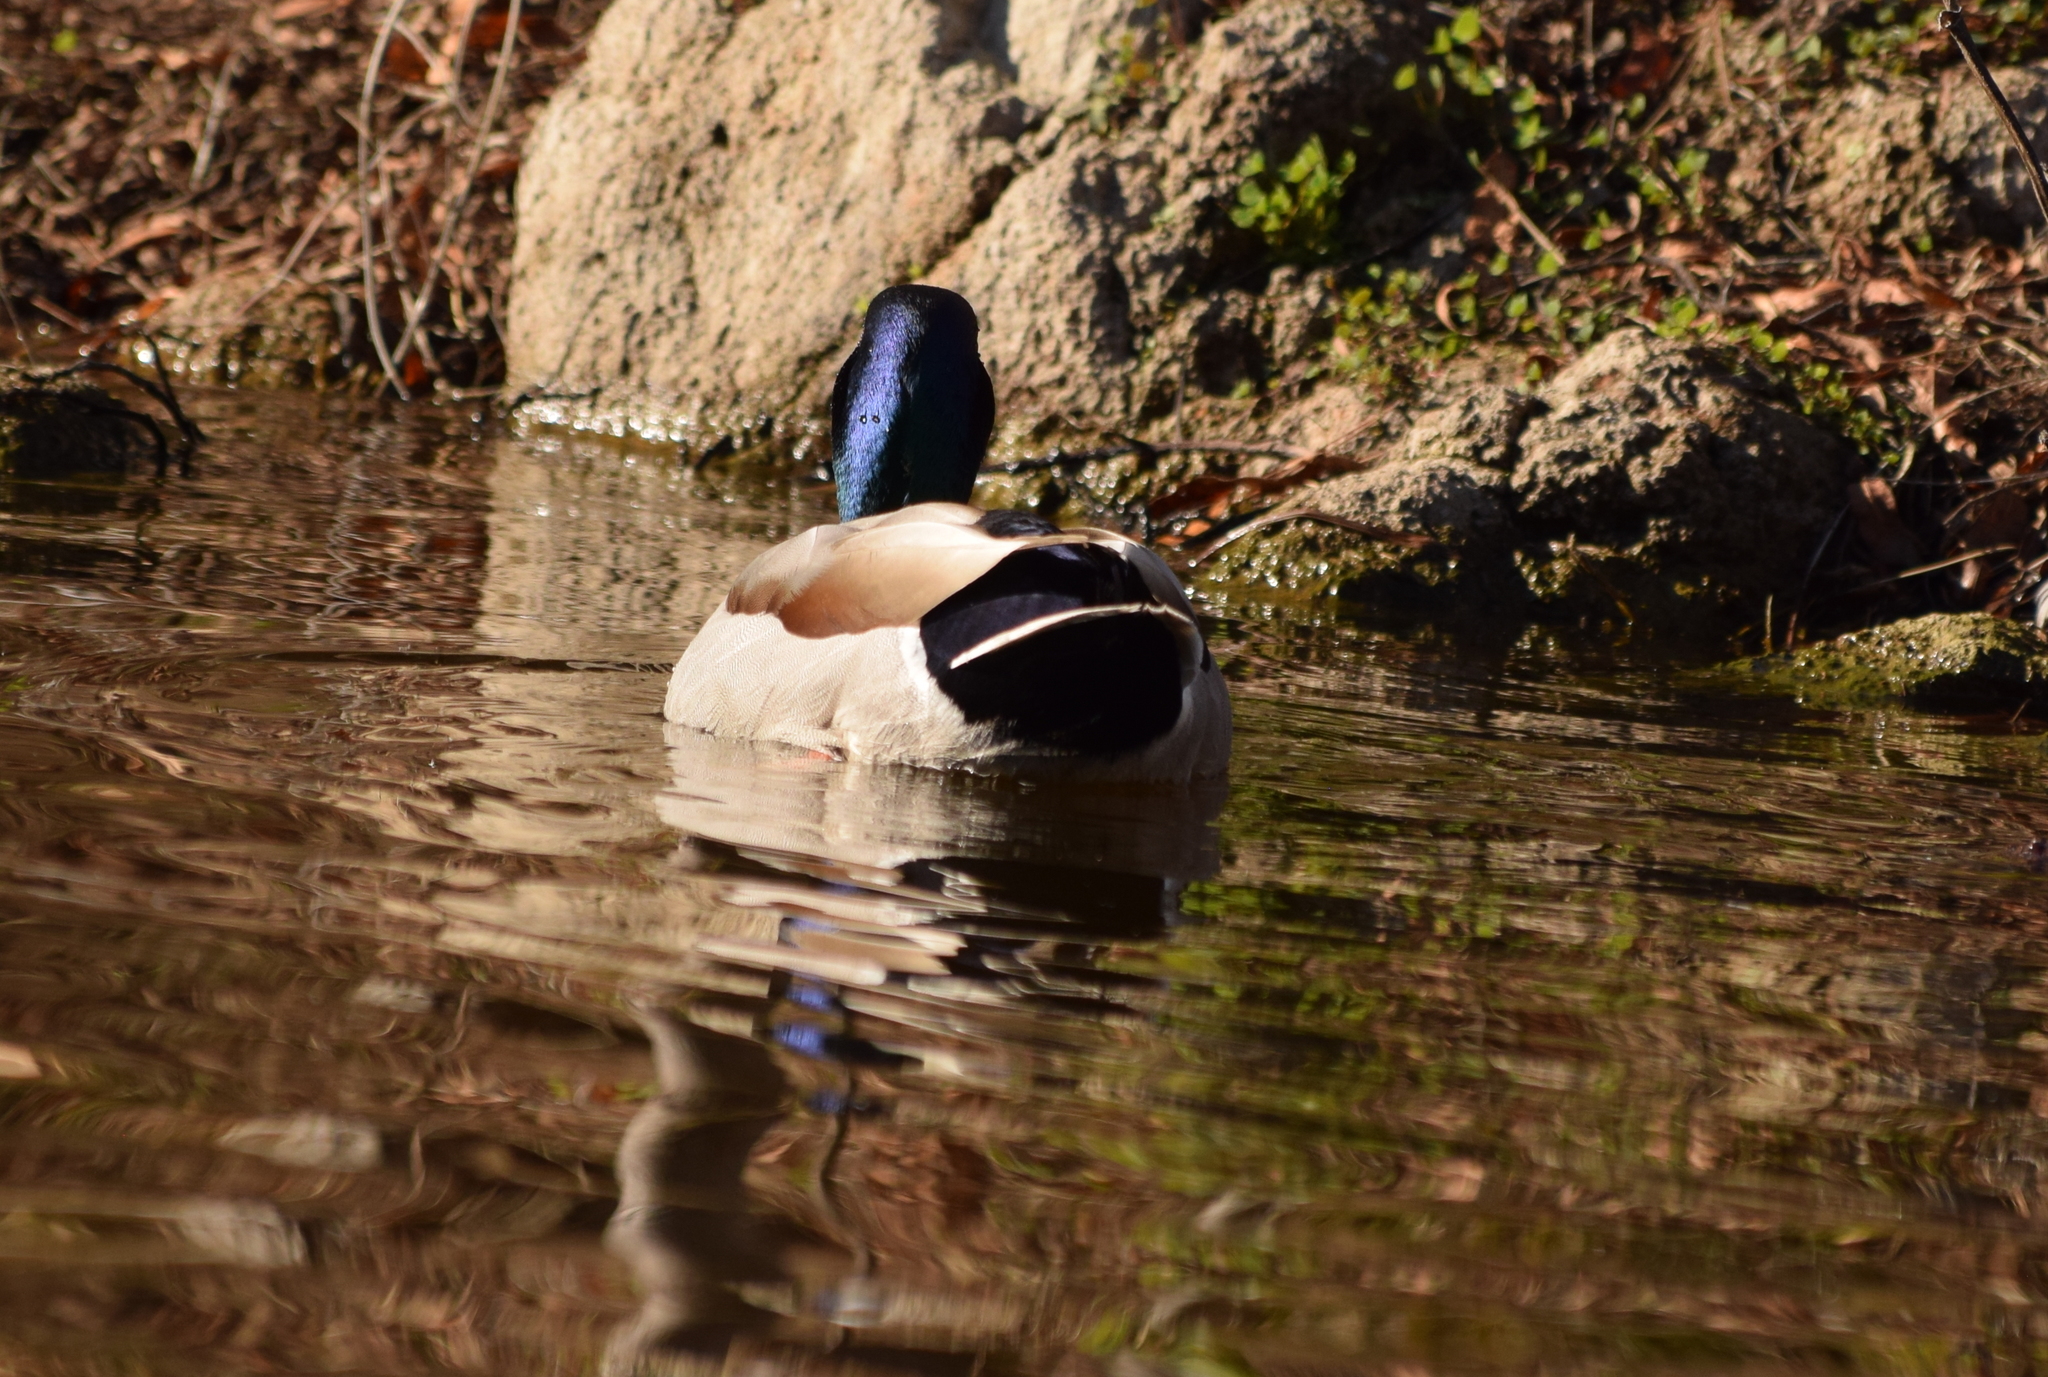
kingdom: Animalia
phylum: Chordata
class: Aves
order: Anseriformes
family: Anatidae
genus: Anas
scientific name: Anas platyrhynchos
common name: Mallard
